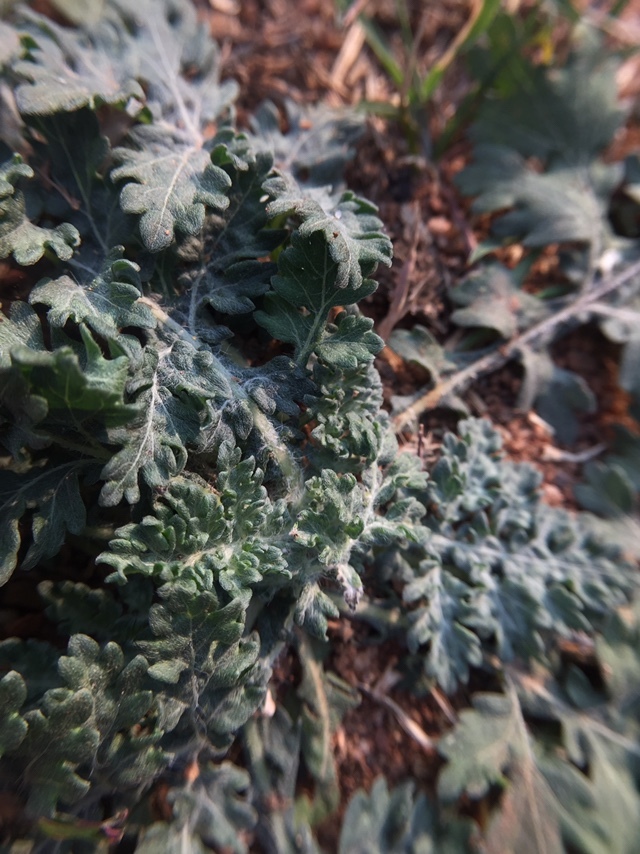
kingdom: Plantae
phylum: Tracheophyta
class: Magnoliopsida
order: Asterales
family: Asteraceae
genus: Parthenium
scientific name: Parthenium hysterophorus
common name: Santa maria feverfew
